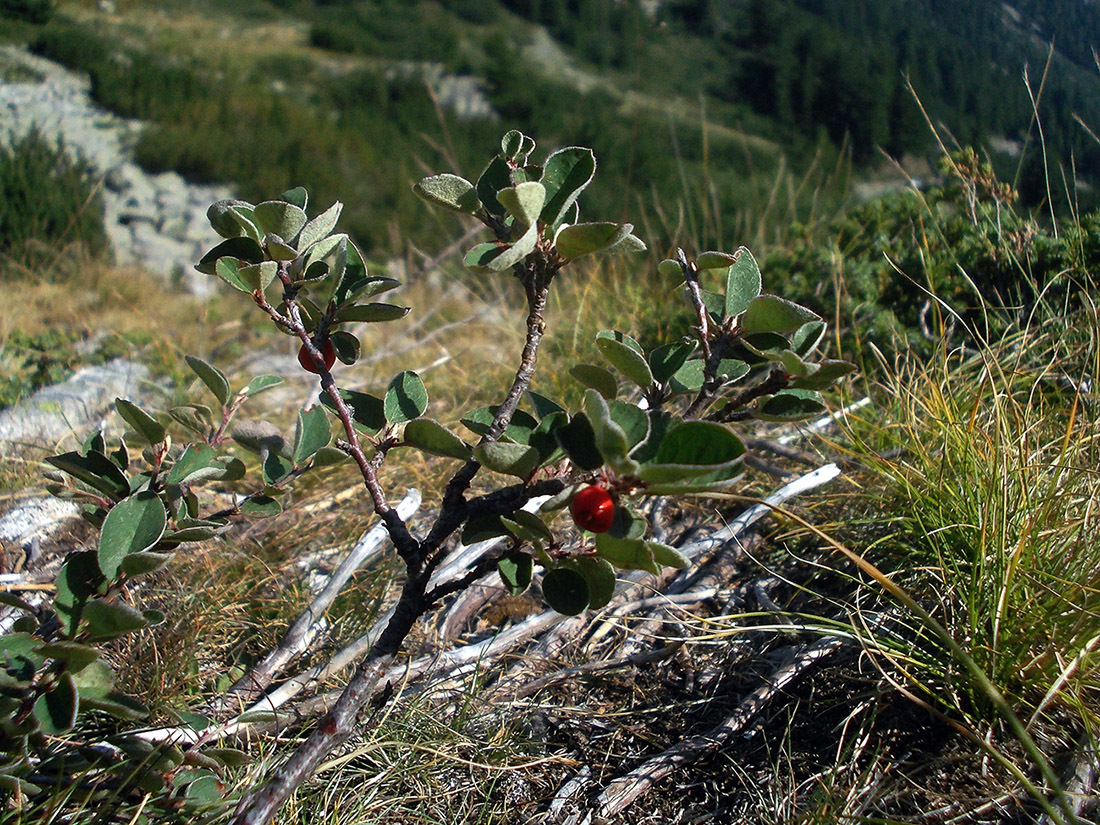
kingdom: Plantae
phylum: Tracheophyta
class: Magnoliopsida
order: Rosales
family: Rosaceae
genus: Cotoneaster
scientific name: Cotoneaster
